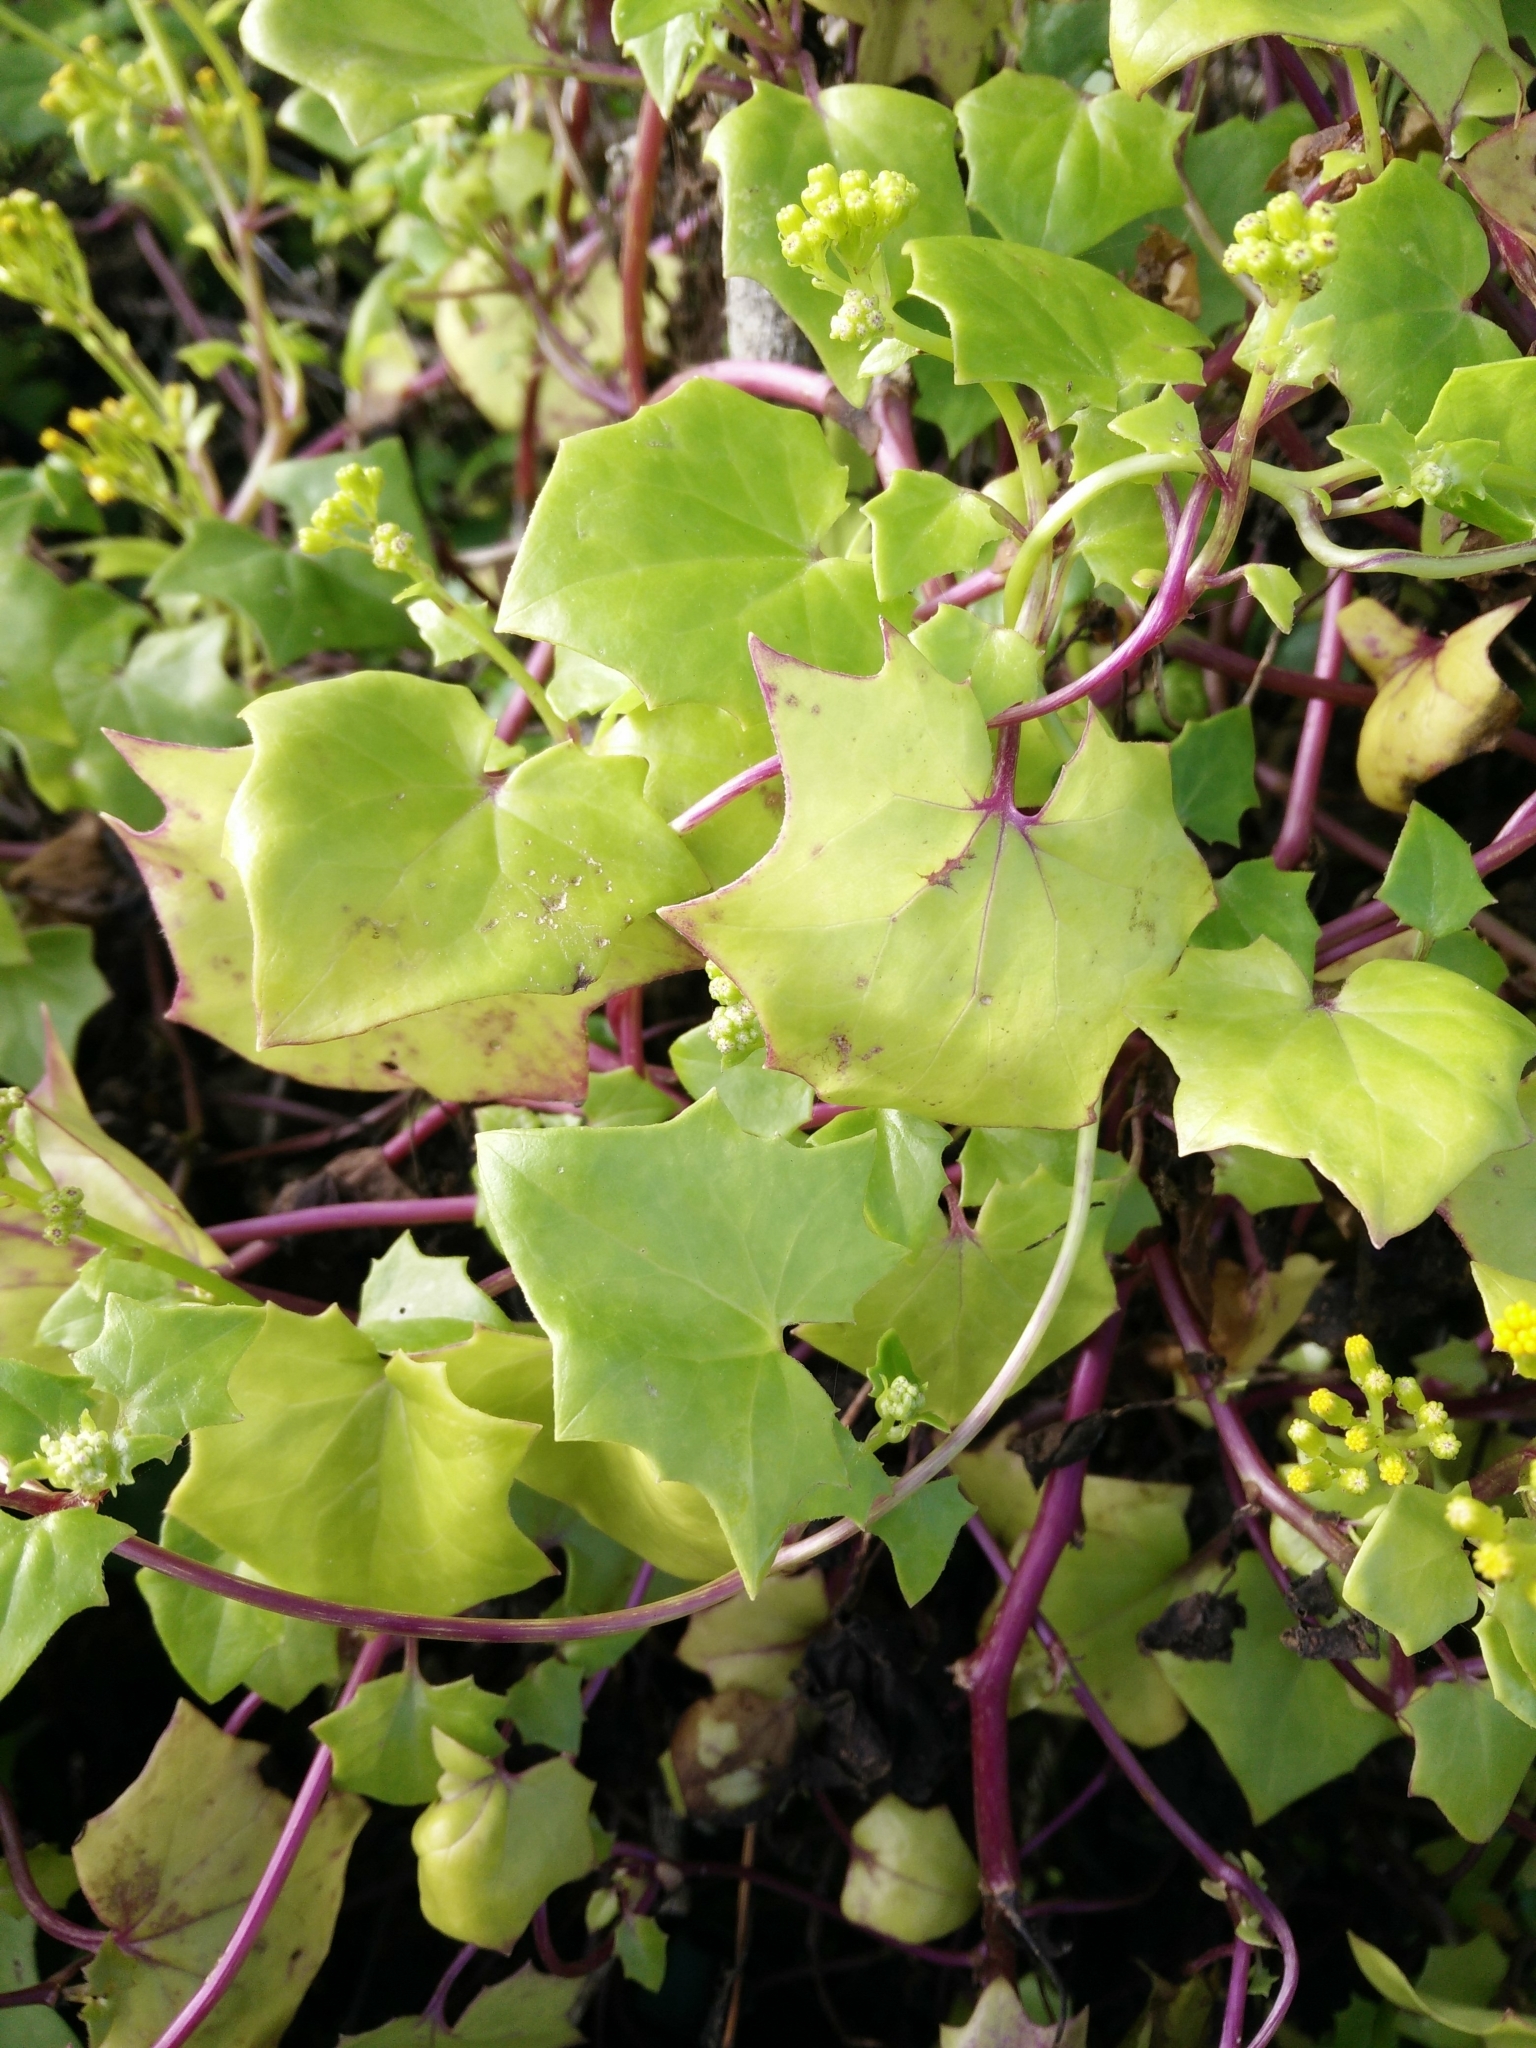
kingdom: Plantae
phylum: Tracheophyta
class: Magnoliopsida
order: Asterales
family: Asteraceae
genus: Delairea
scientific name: Delairea odorata
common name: Cape-ivy
